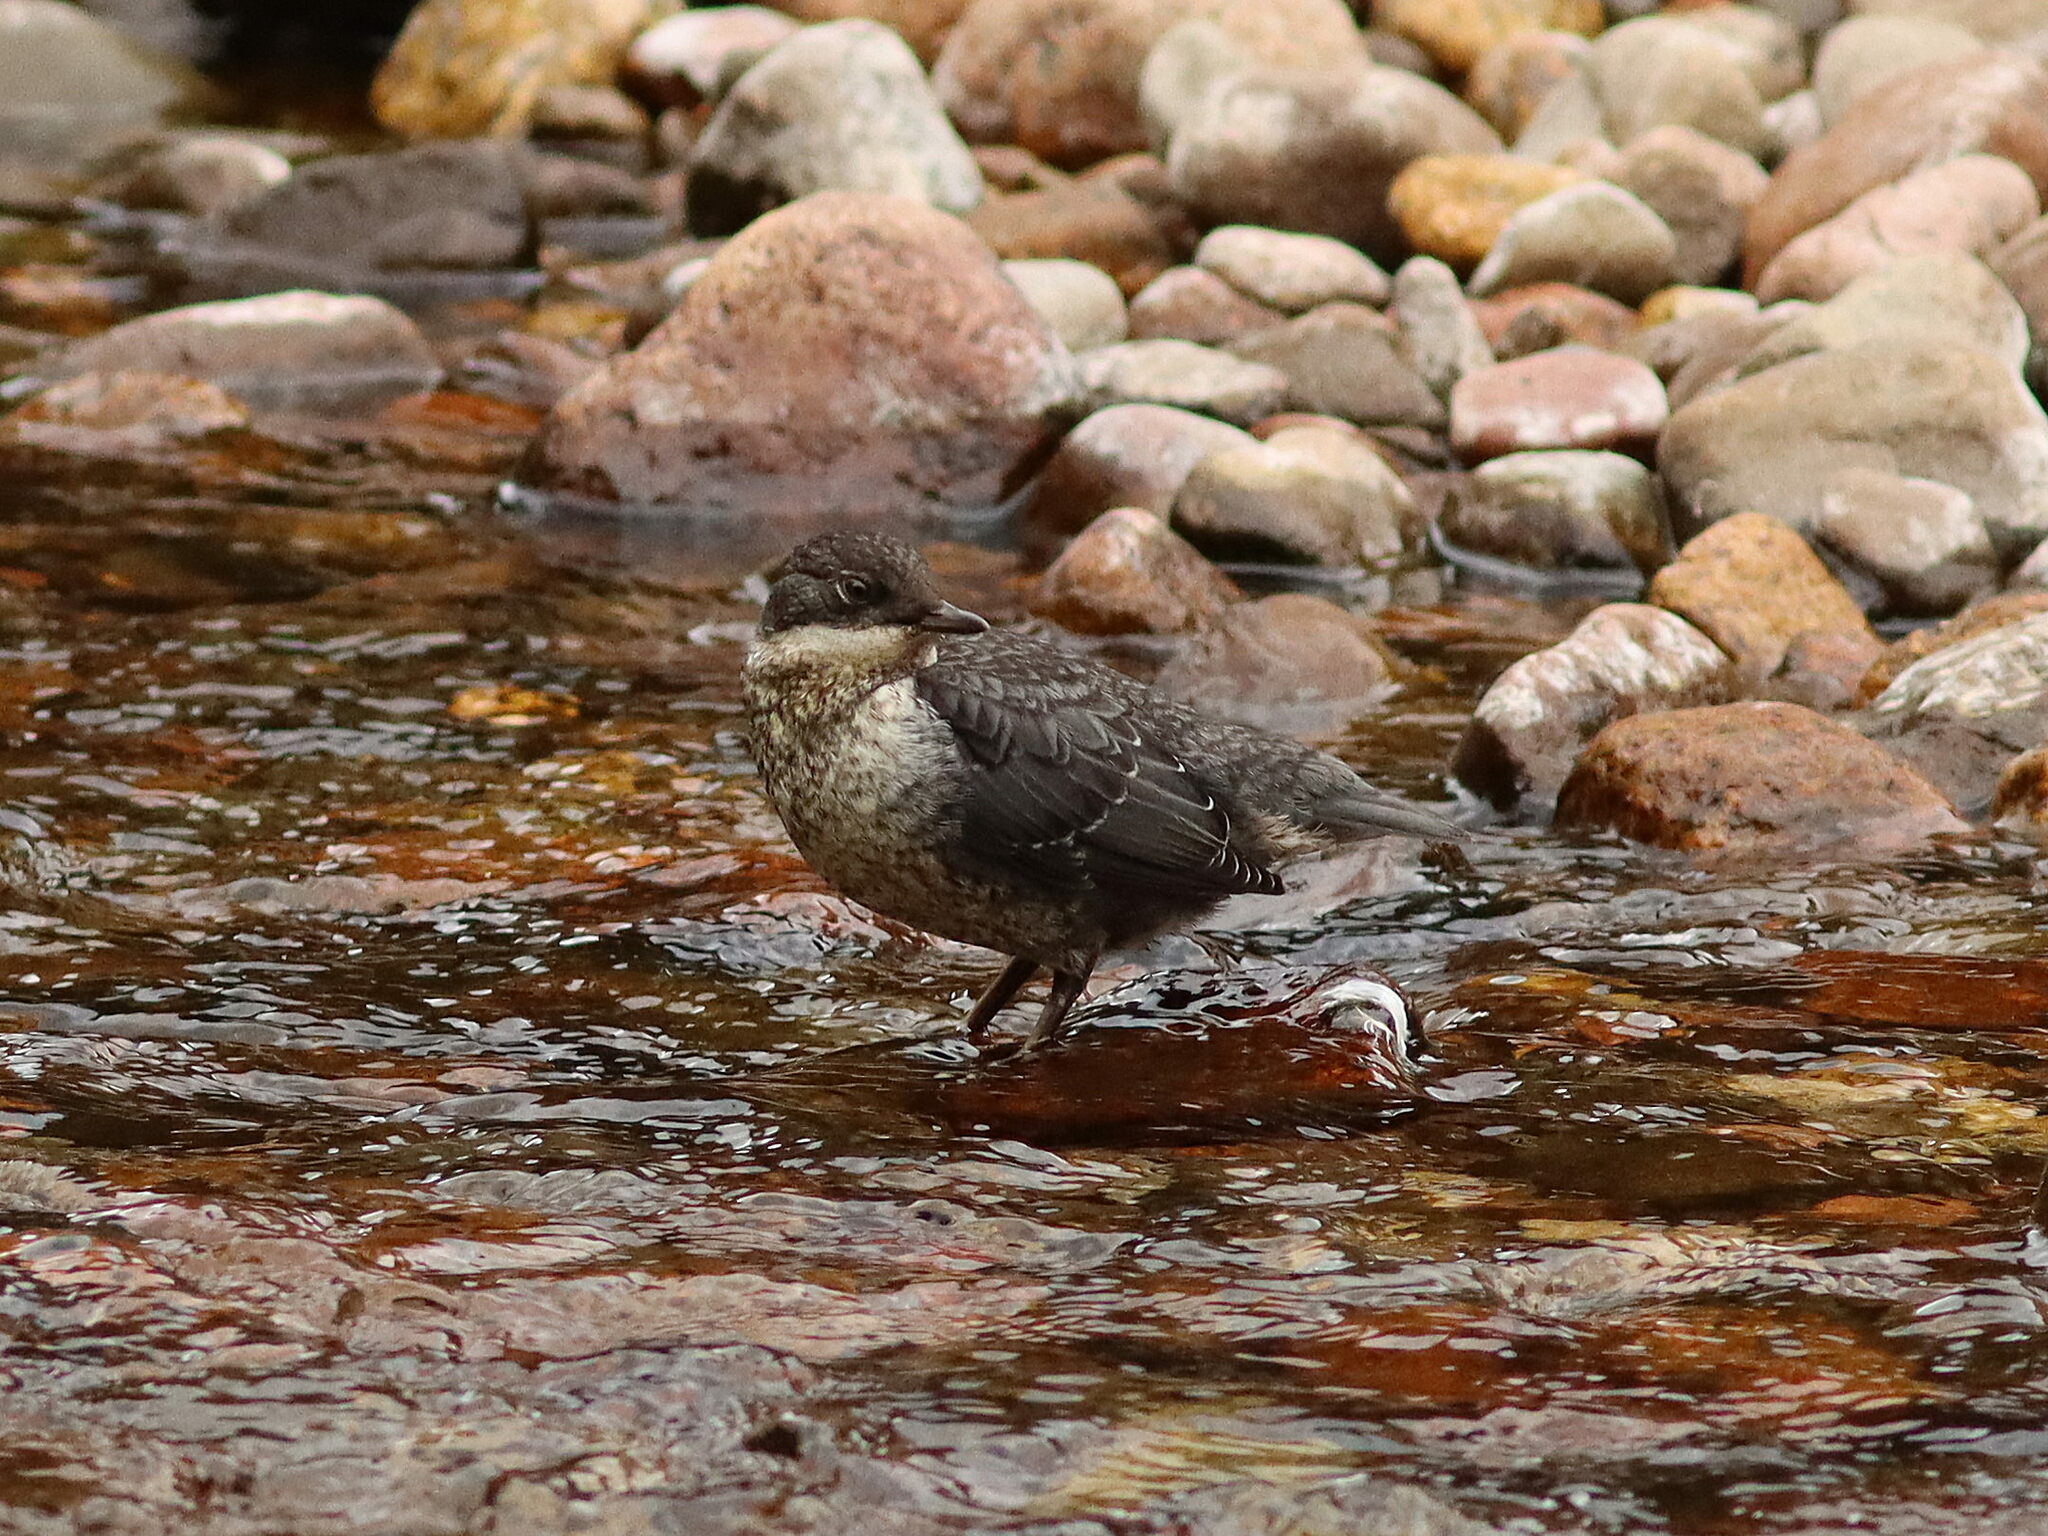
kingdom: Animalia
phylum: Chordata
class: Aves
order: Passeriformes
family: Cinclidae
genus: Cinclus
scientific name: Cinclus cinclus
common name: White-throated dipper
